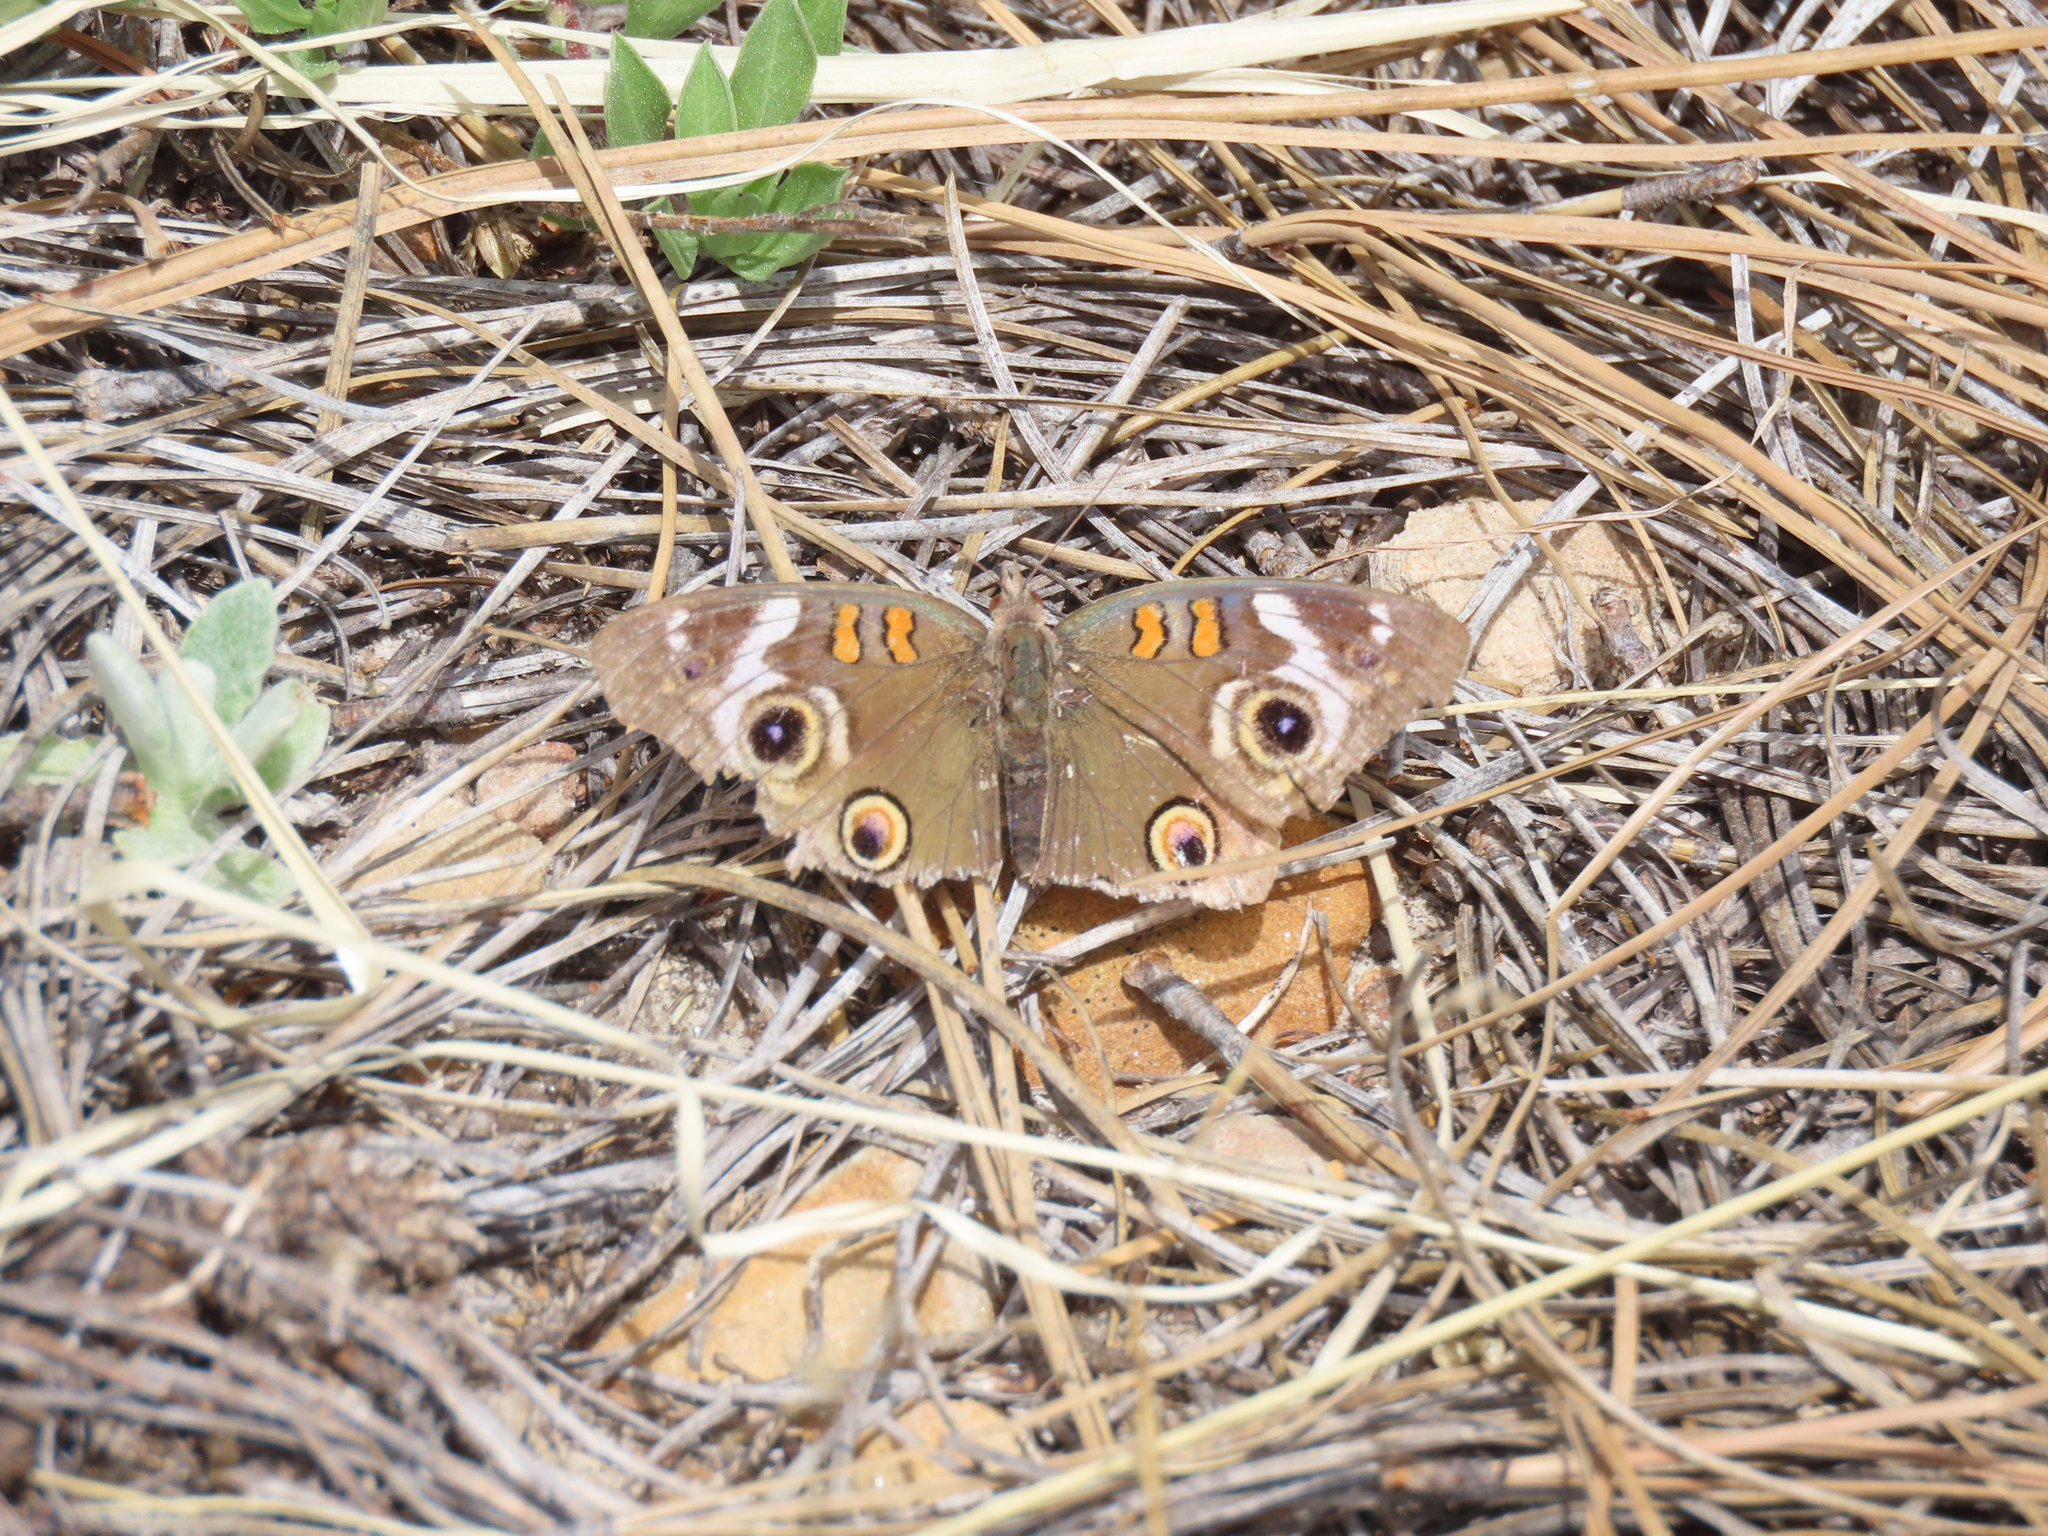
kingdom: Animalia
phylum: Arthropoda
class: Insecta
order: Lepidoptera
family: Nymphalidae
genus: Junonia
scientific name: Junonia grisea
